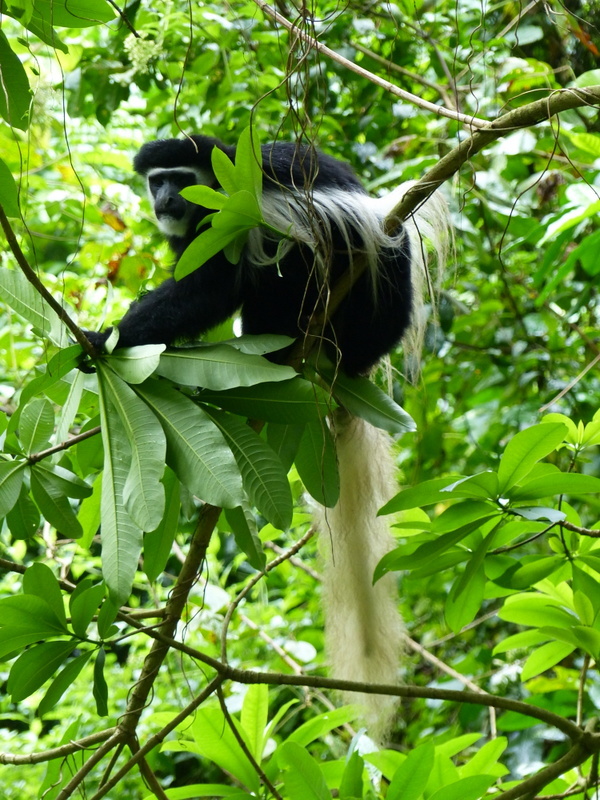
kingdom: Animalia
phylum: Chordata
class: Mammalia
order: Primates
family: Cercopithecidae
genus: Colobus
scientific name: Colobus caudatus
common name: Mount kilimanjaro guereza
